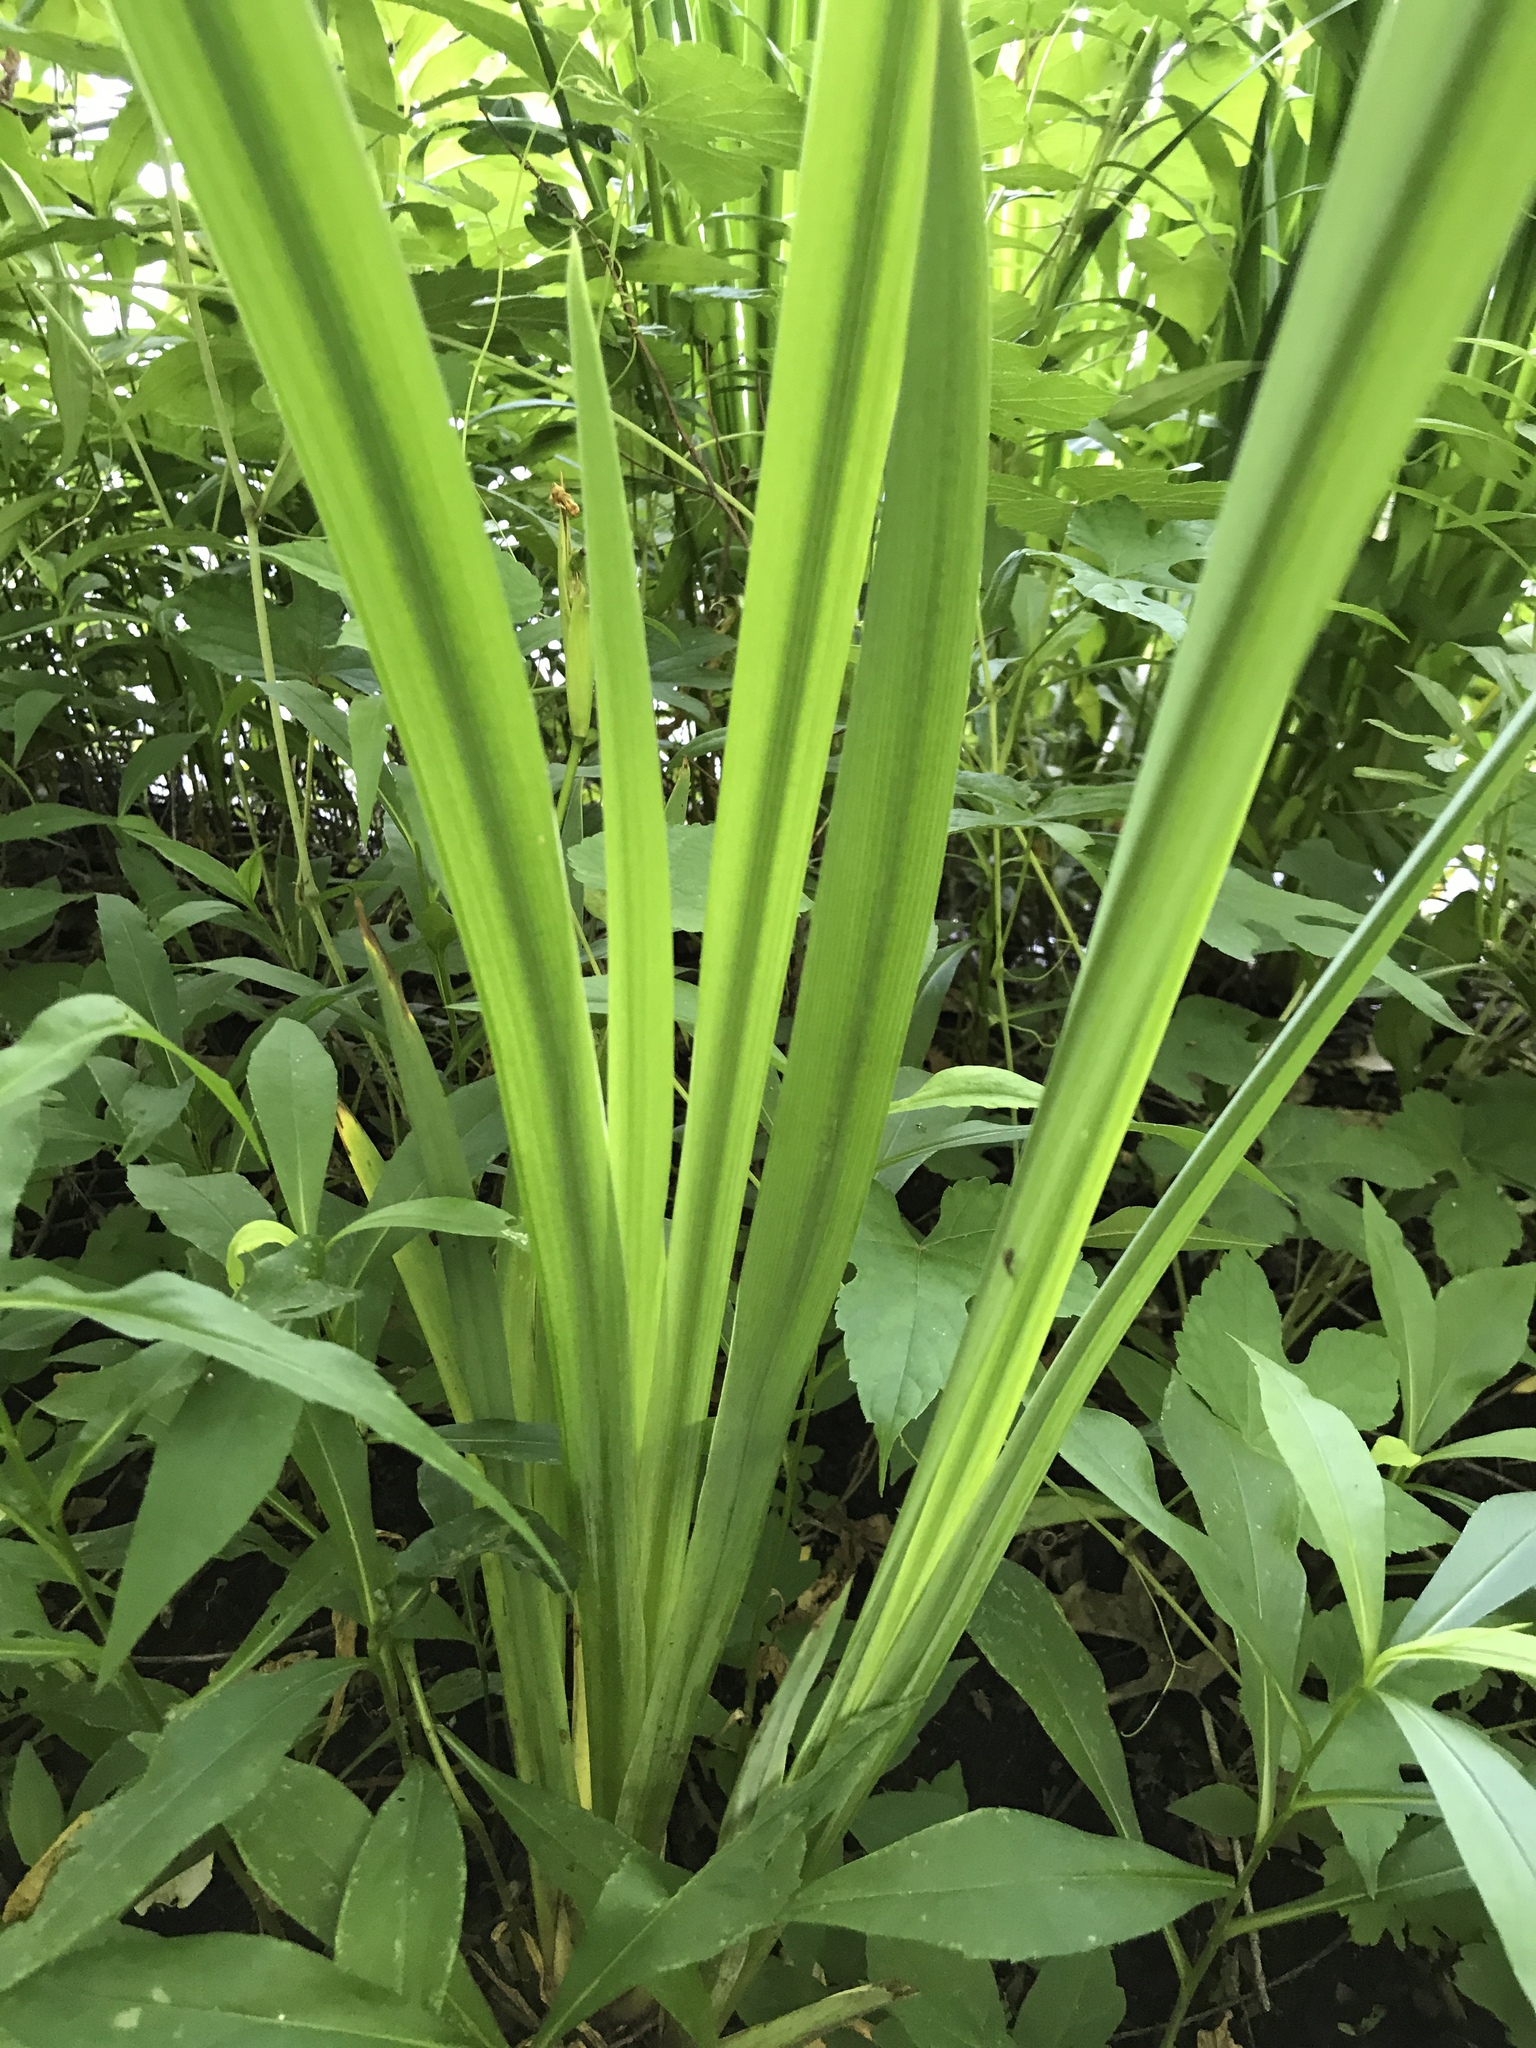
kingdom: Plantae
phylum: Tracheophyta
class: Liliopsida
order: Asparagales
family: Iridaceae
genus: Iris
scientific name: Iris pseudacorus
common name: Yellow flag
